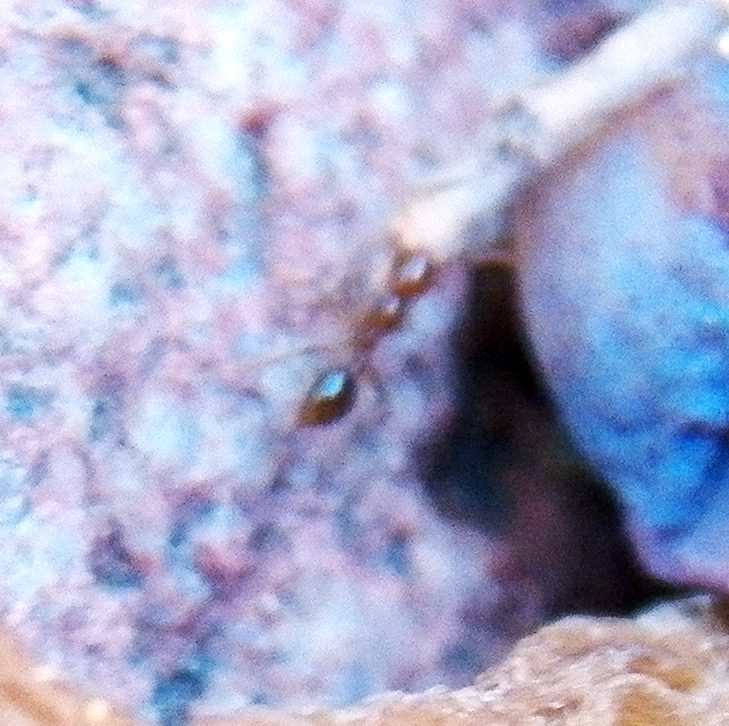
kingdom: Animalia
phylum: Arthropoda
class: Insecta
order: Hymenoptera
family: Formicidae
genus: Solenopsis
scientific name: Solenopsis invicta
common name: Red imported fire ant
